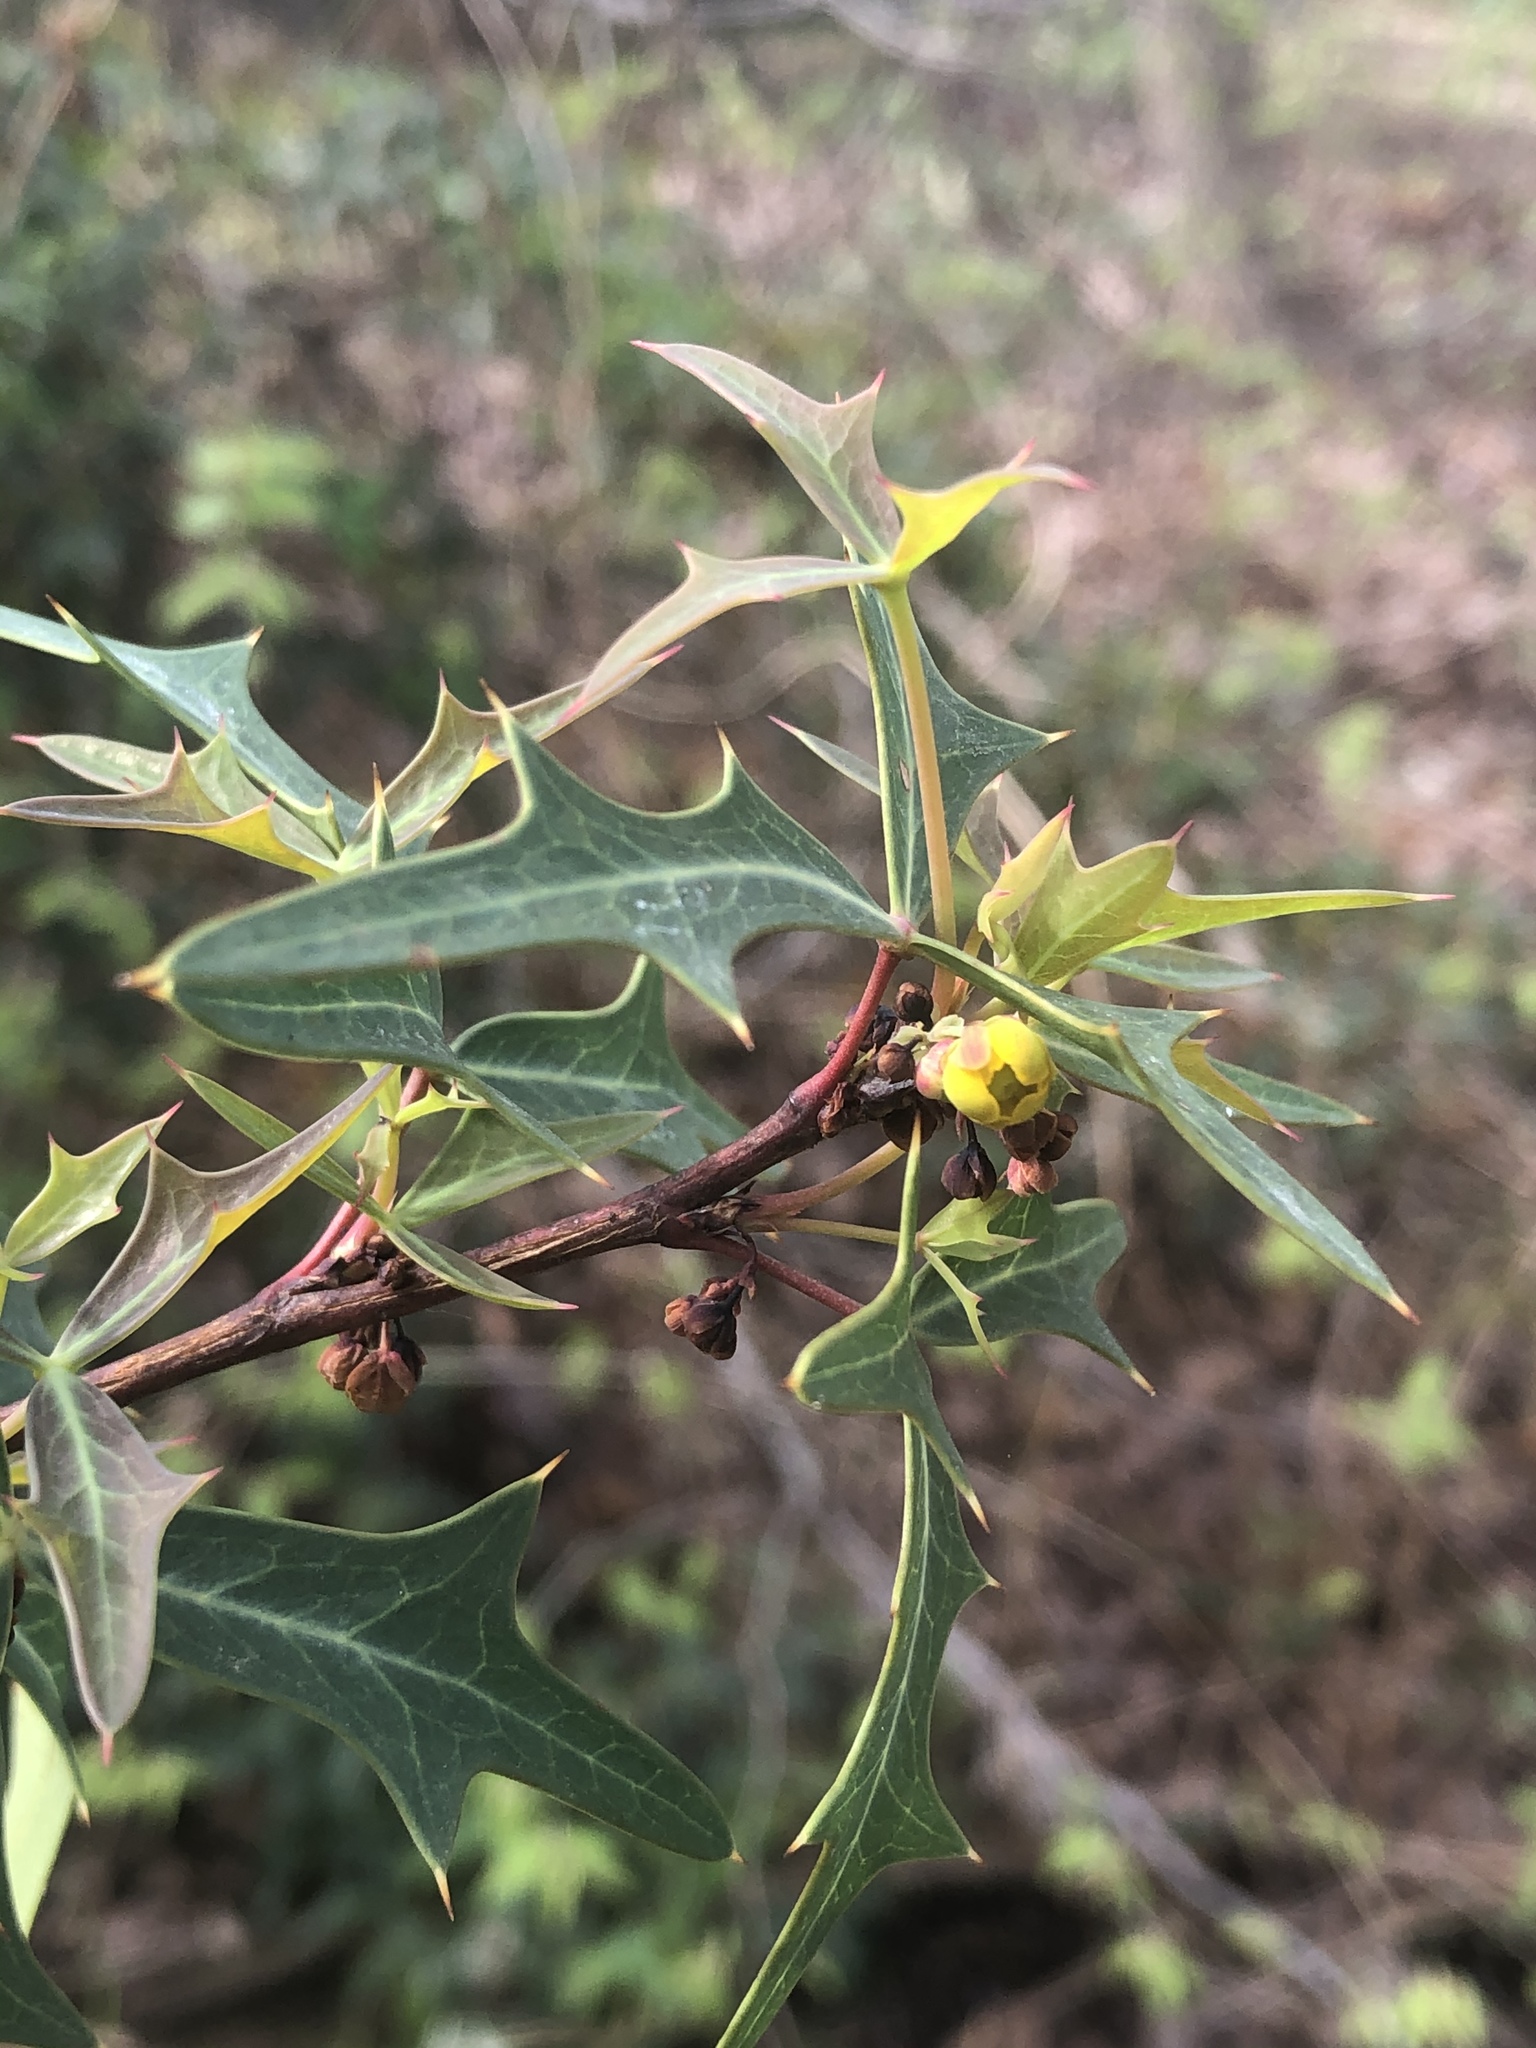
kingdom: Plantae
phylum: Tracheophyta
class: Magnoliopsida
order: Ranunculales
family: Berberidaceae
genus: Alloberberis
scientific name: Alloberberis trifoliolata
